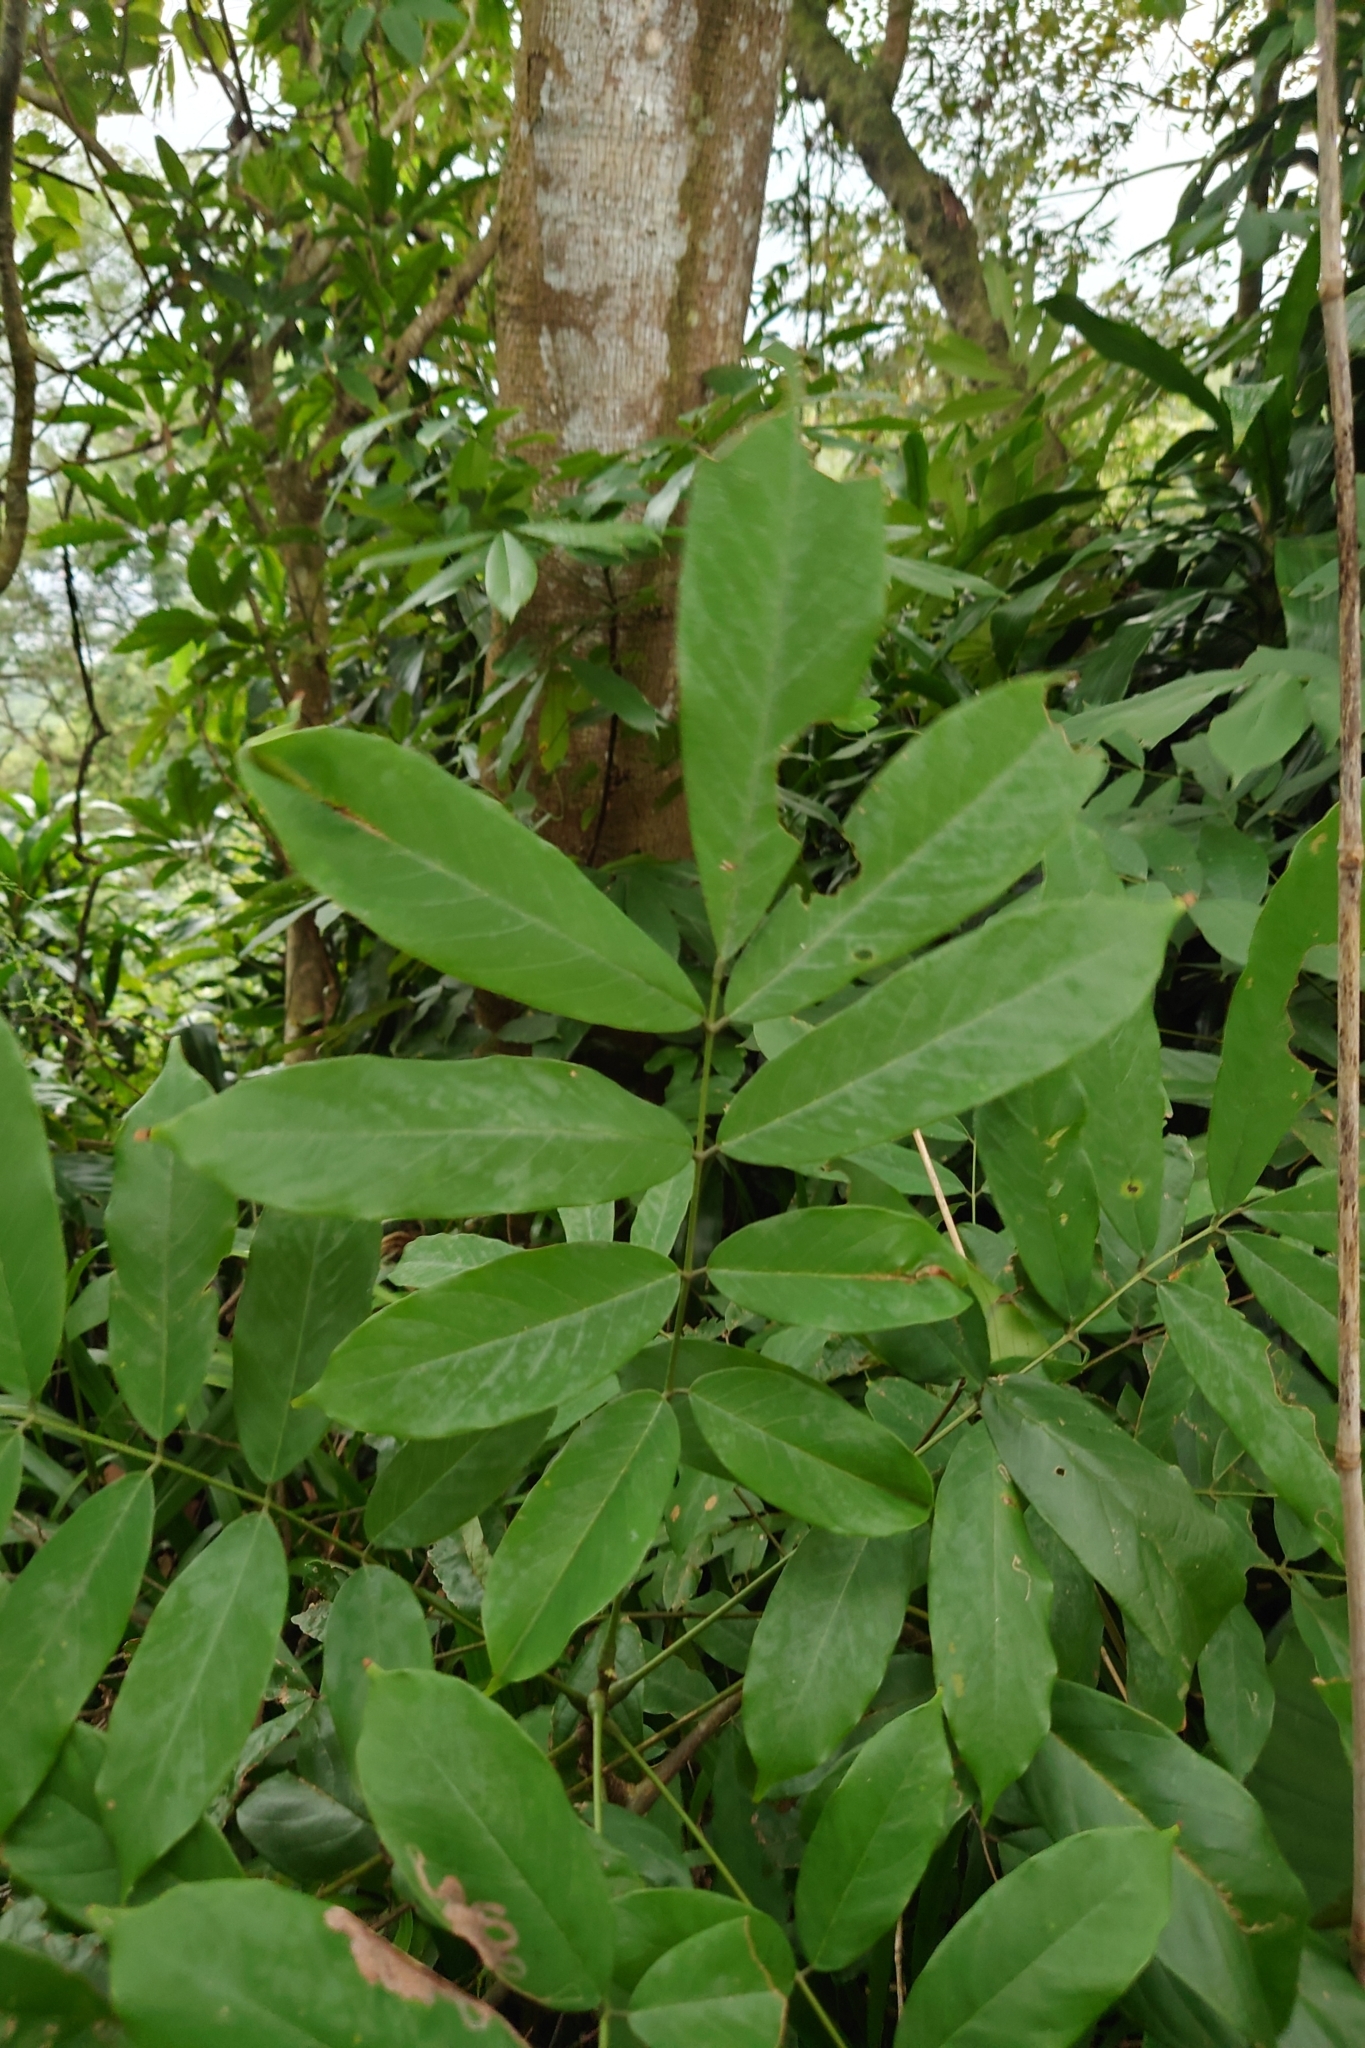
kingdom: Plantae
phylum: Tracheophyta
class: Magnoliopsida
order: Fabales
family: Fabaceae
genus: Millettia
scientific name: Millettia pachycarpa
